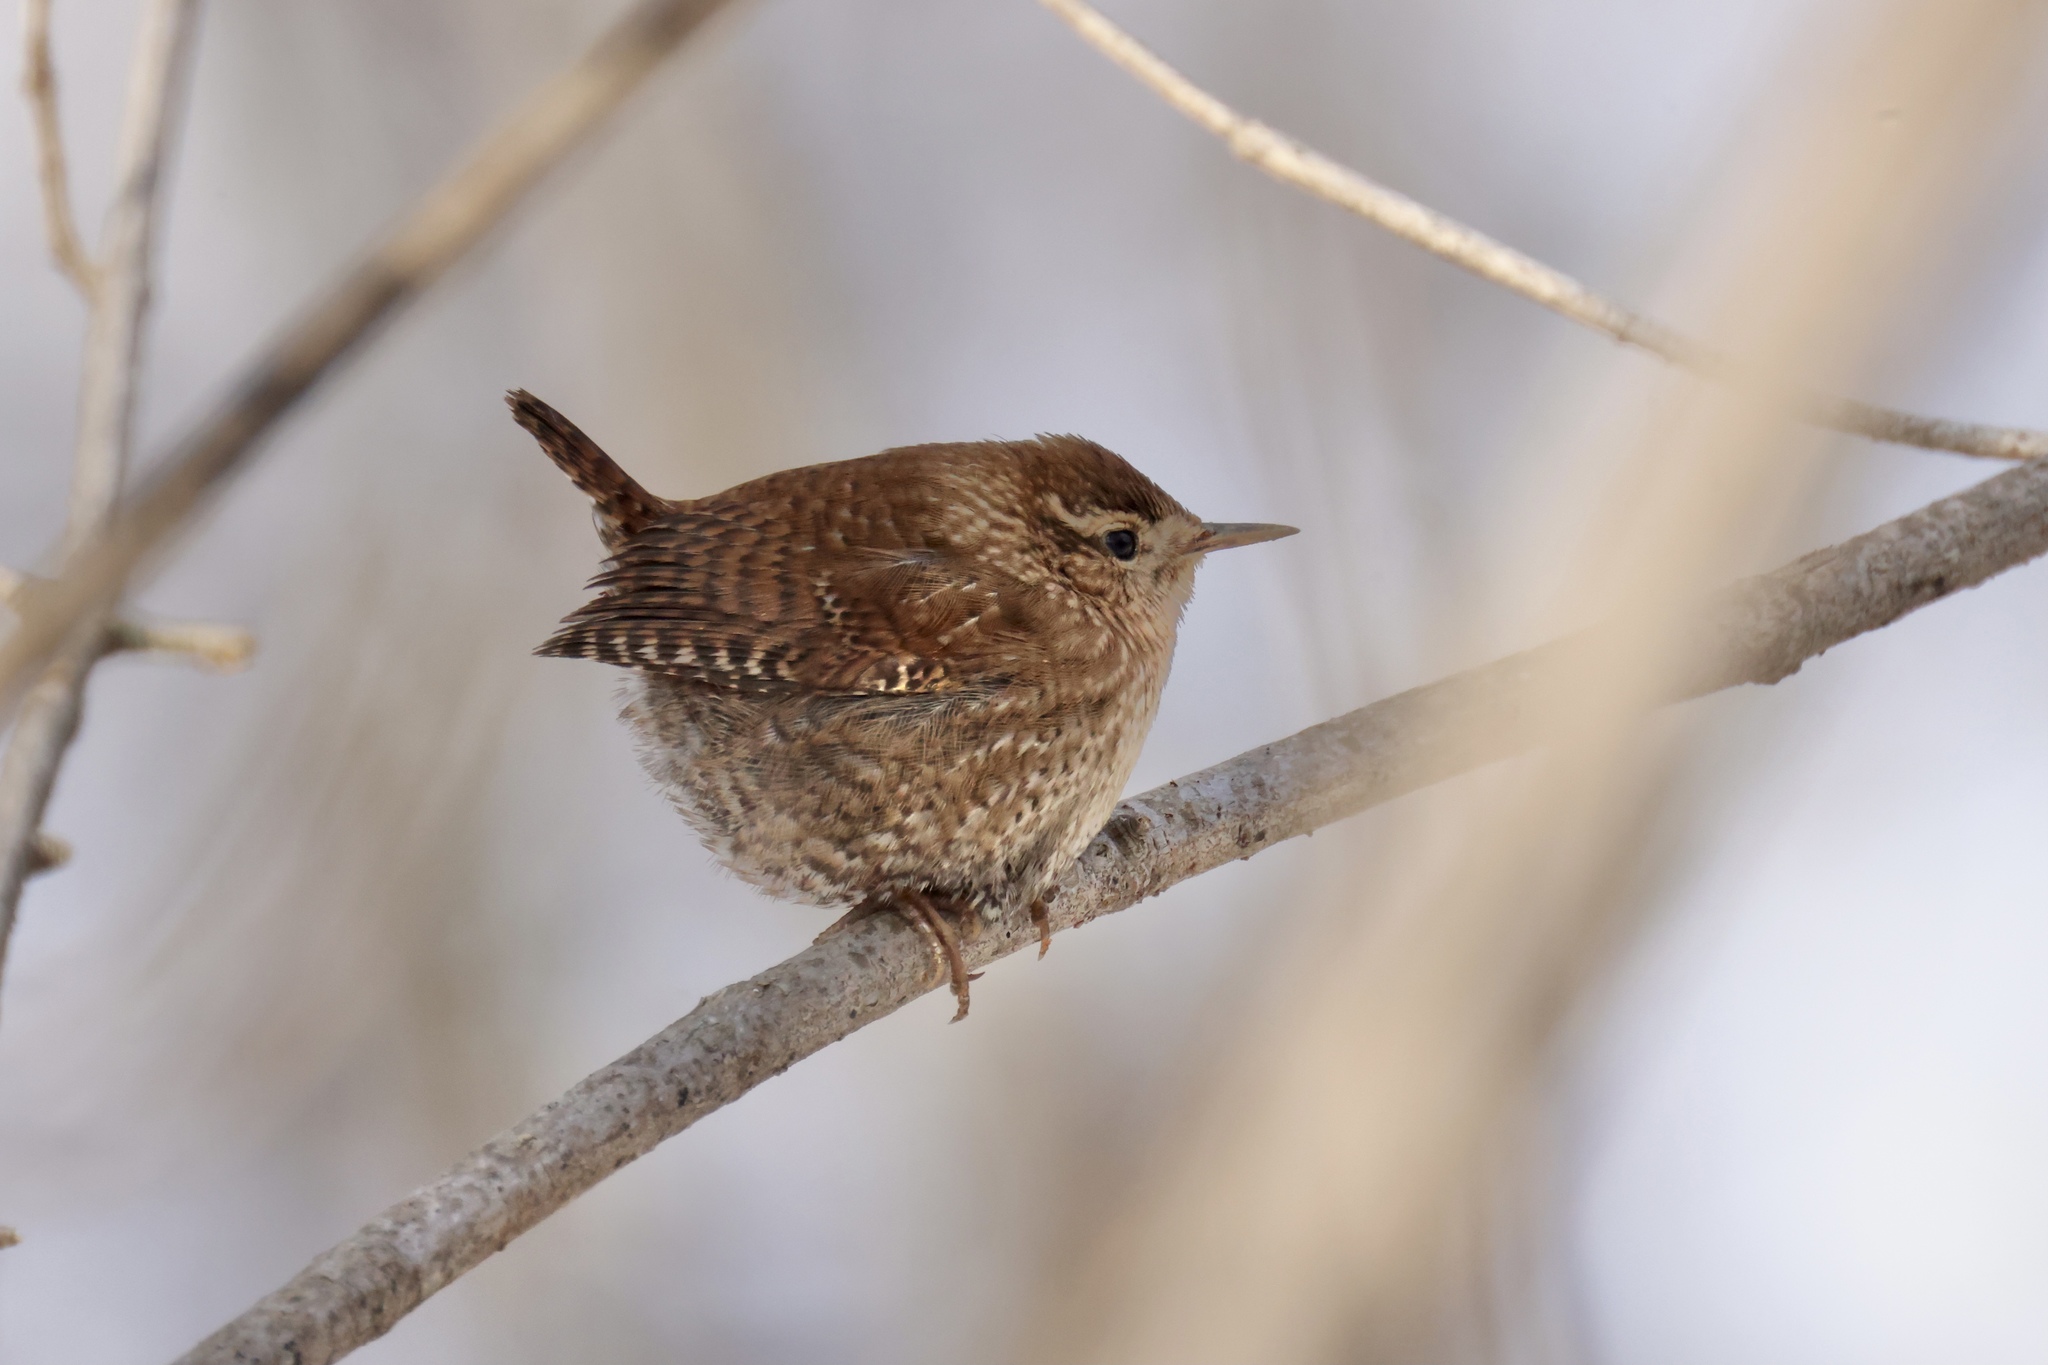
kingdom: Animalia
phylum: Chordata
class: Aves
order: Passeriformes
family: Troglodytidae
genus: Troglodytes
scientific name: Troglodytes hiemalis
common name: Winter wren
